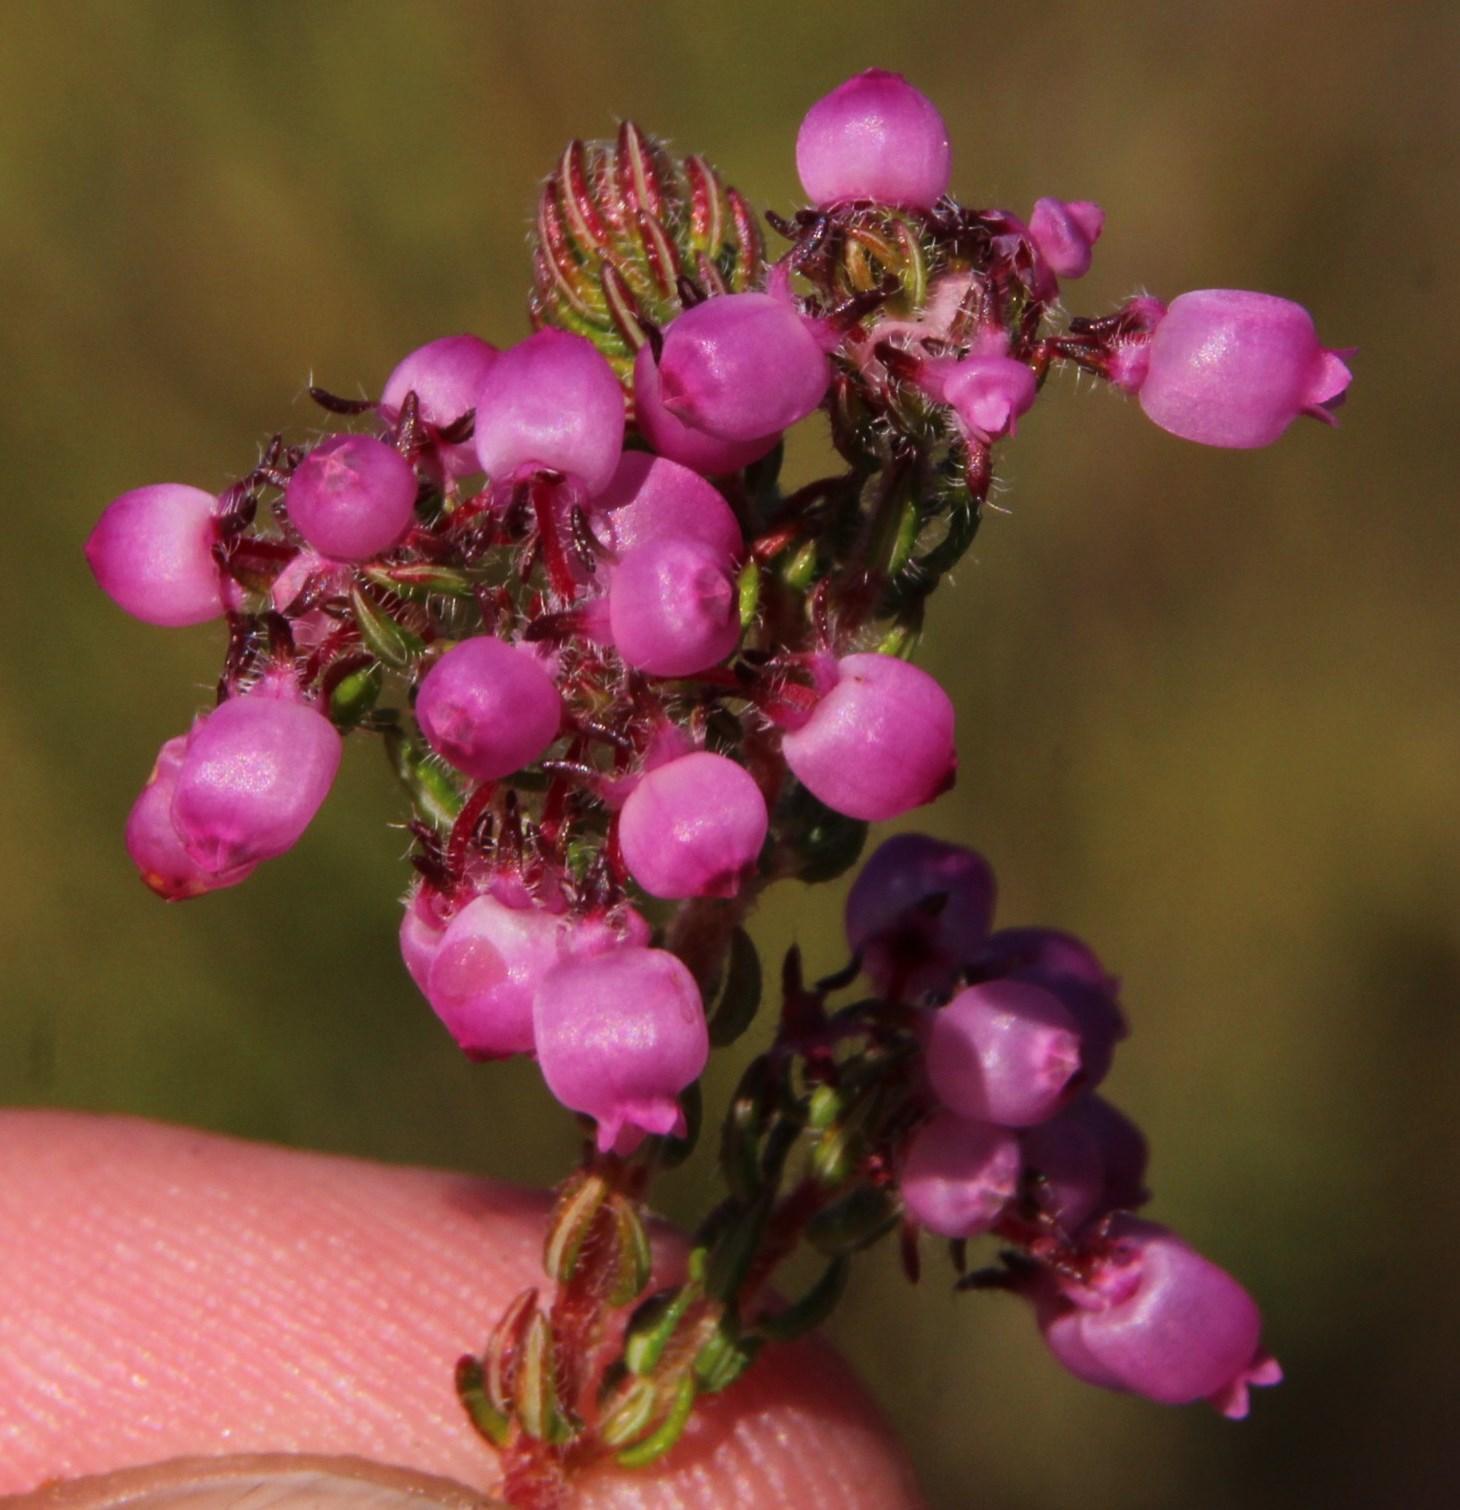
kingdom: Plantae
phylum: Tracheophyta
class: Magnoliopsida
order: Ericales
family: Ericaceae
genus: Erica
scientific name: Erica bergiana
